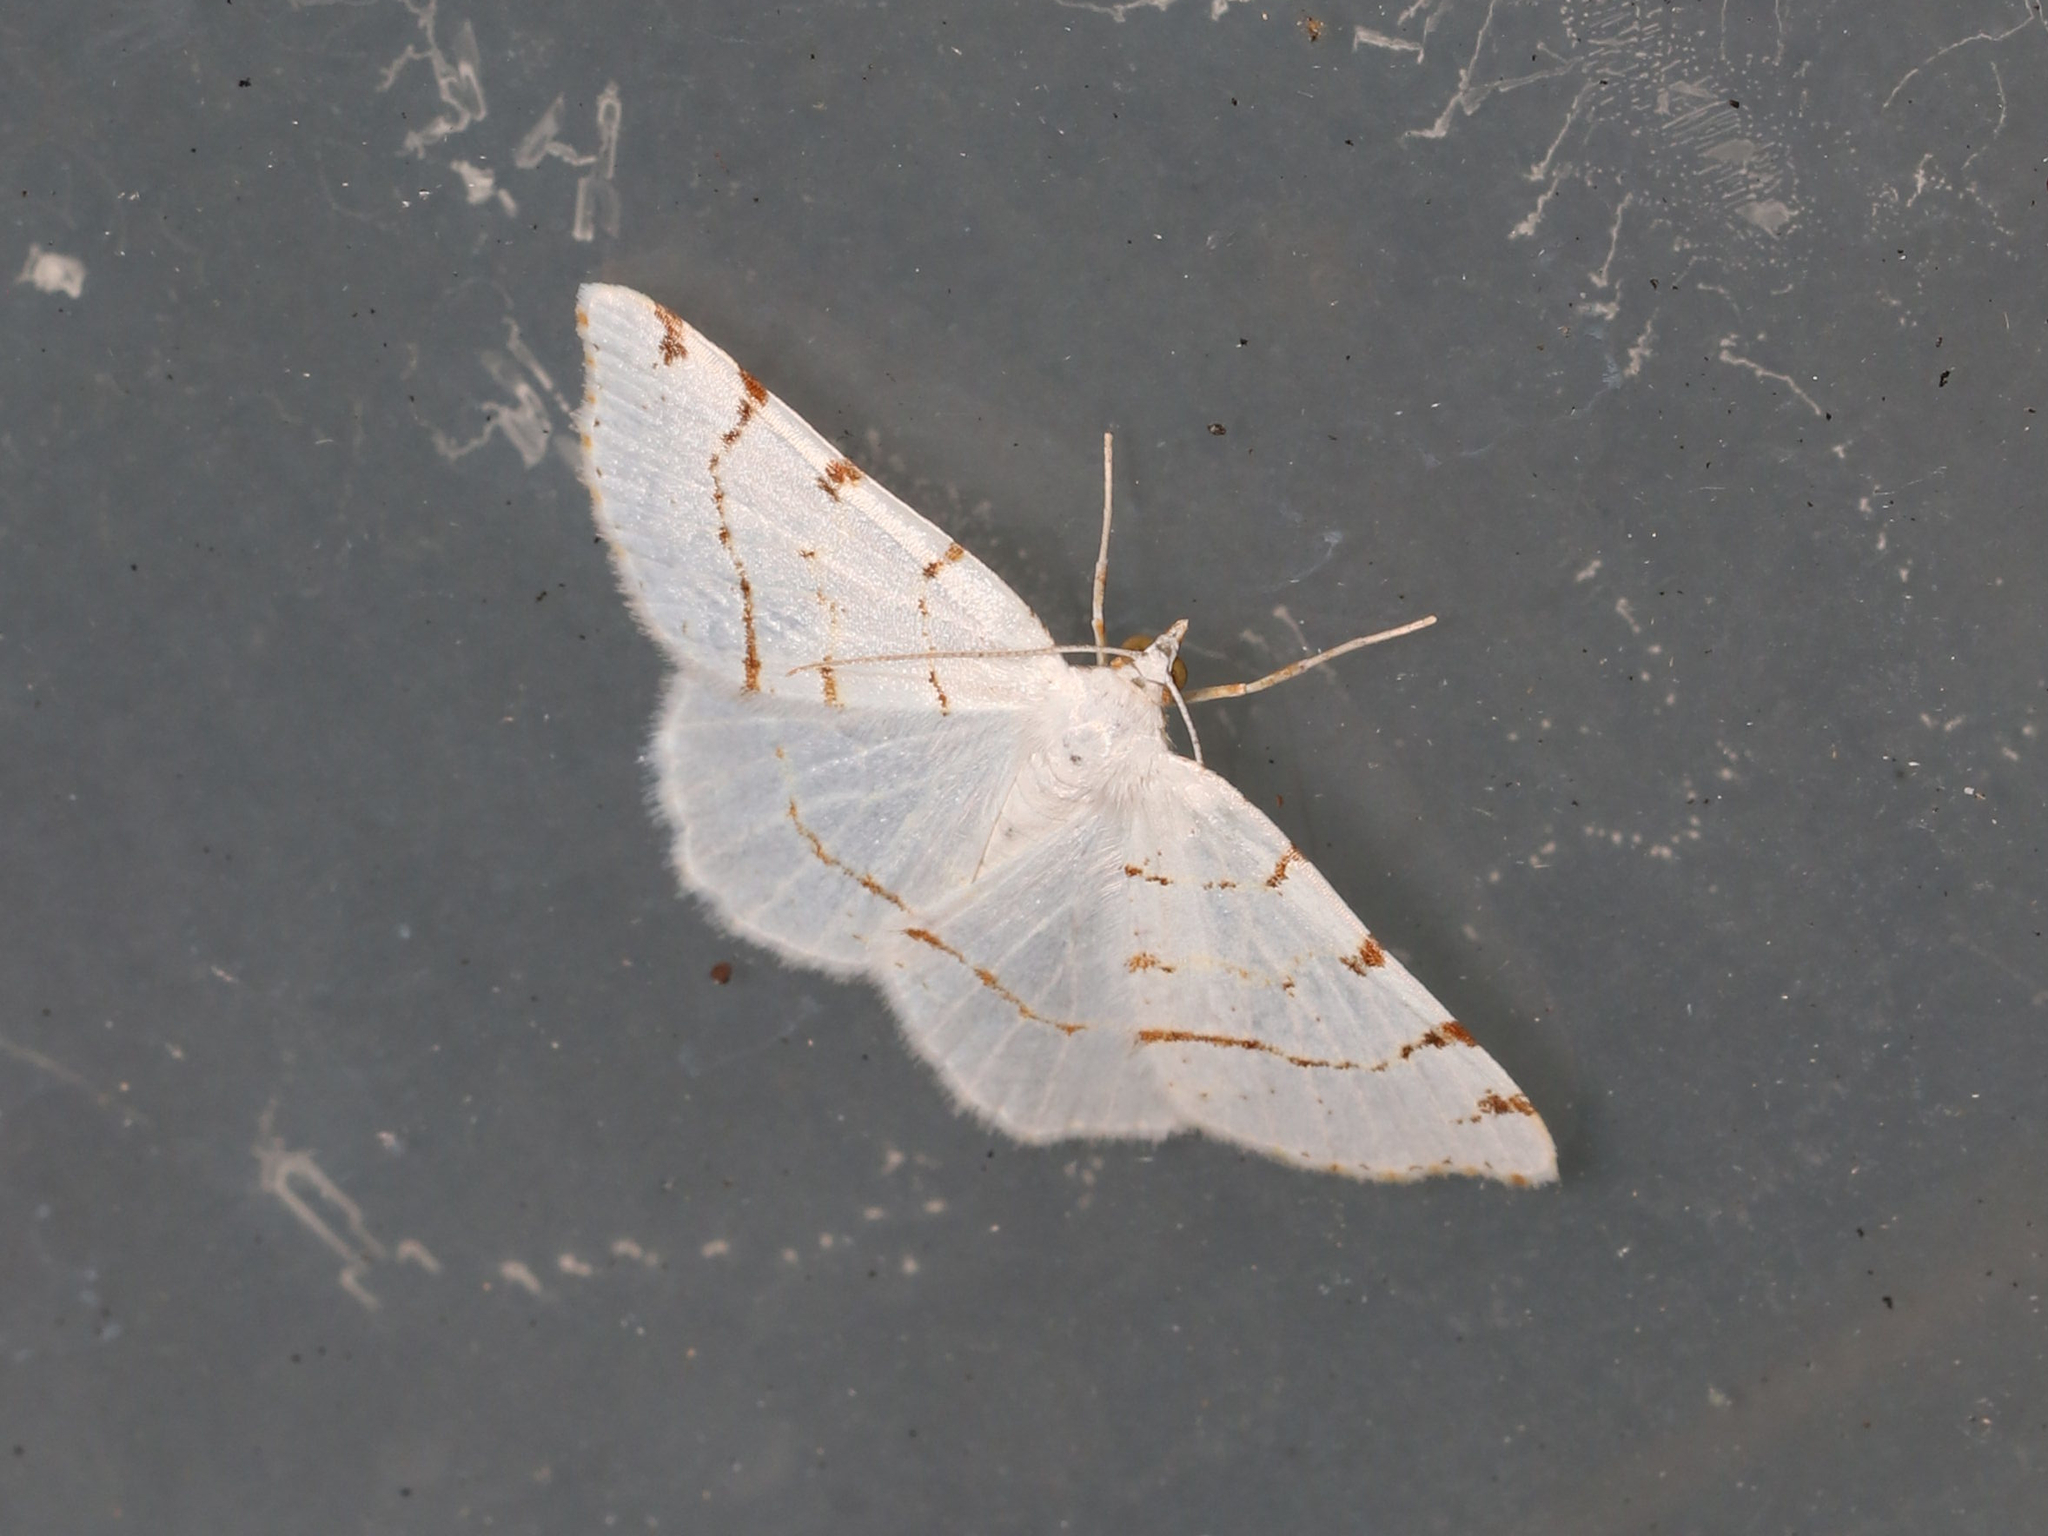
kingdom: Animalia
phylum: Arthropoda
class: Insecta
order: Lepidoptera
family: Geometridae
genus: Macaria
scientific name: Macaria pustularia
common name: Lesser maple spanworm moth
